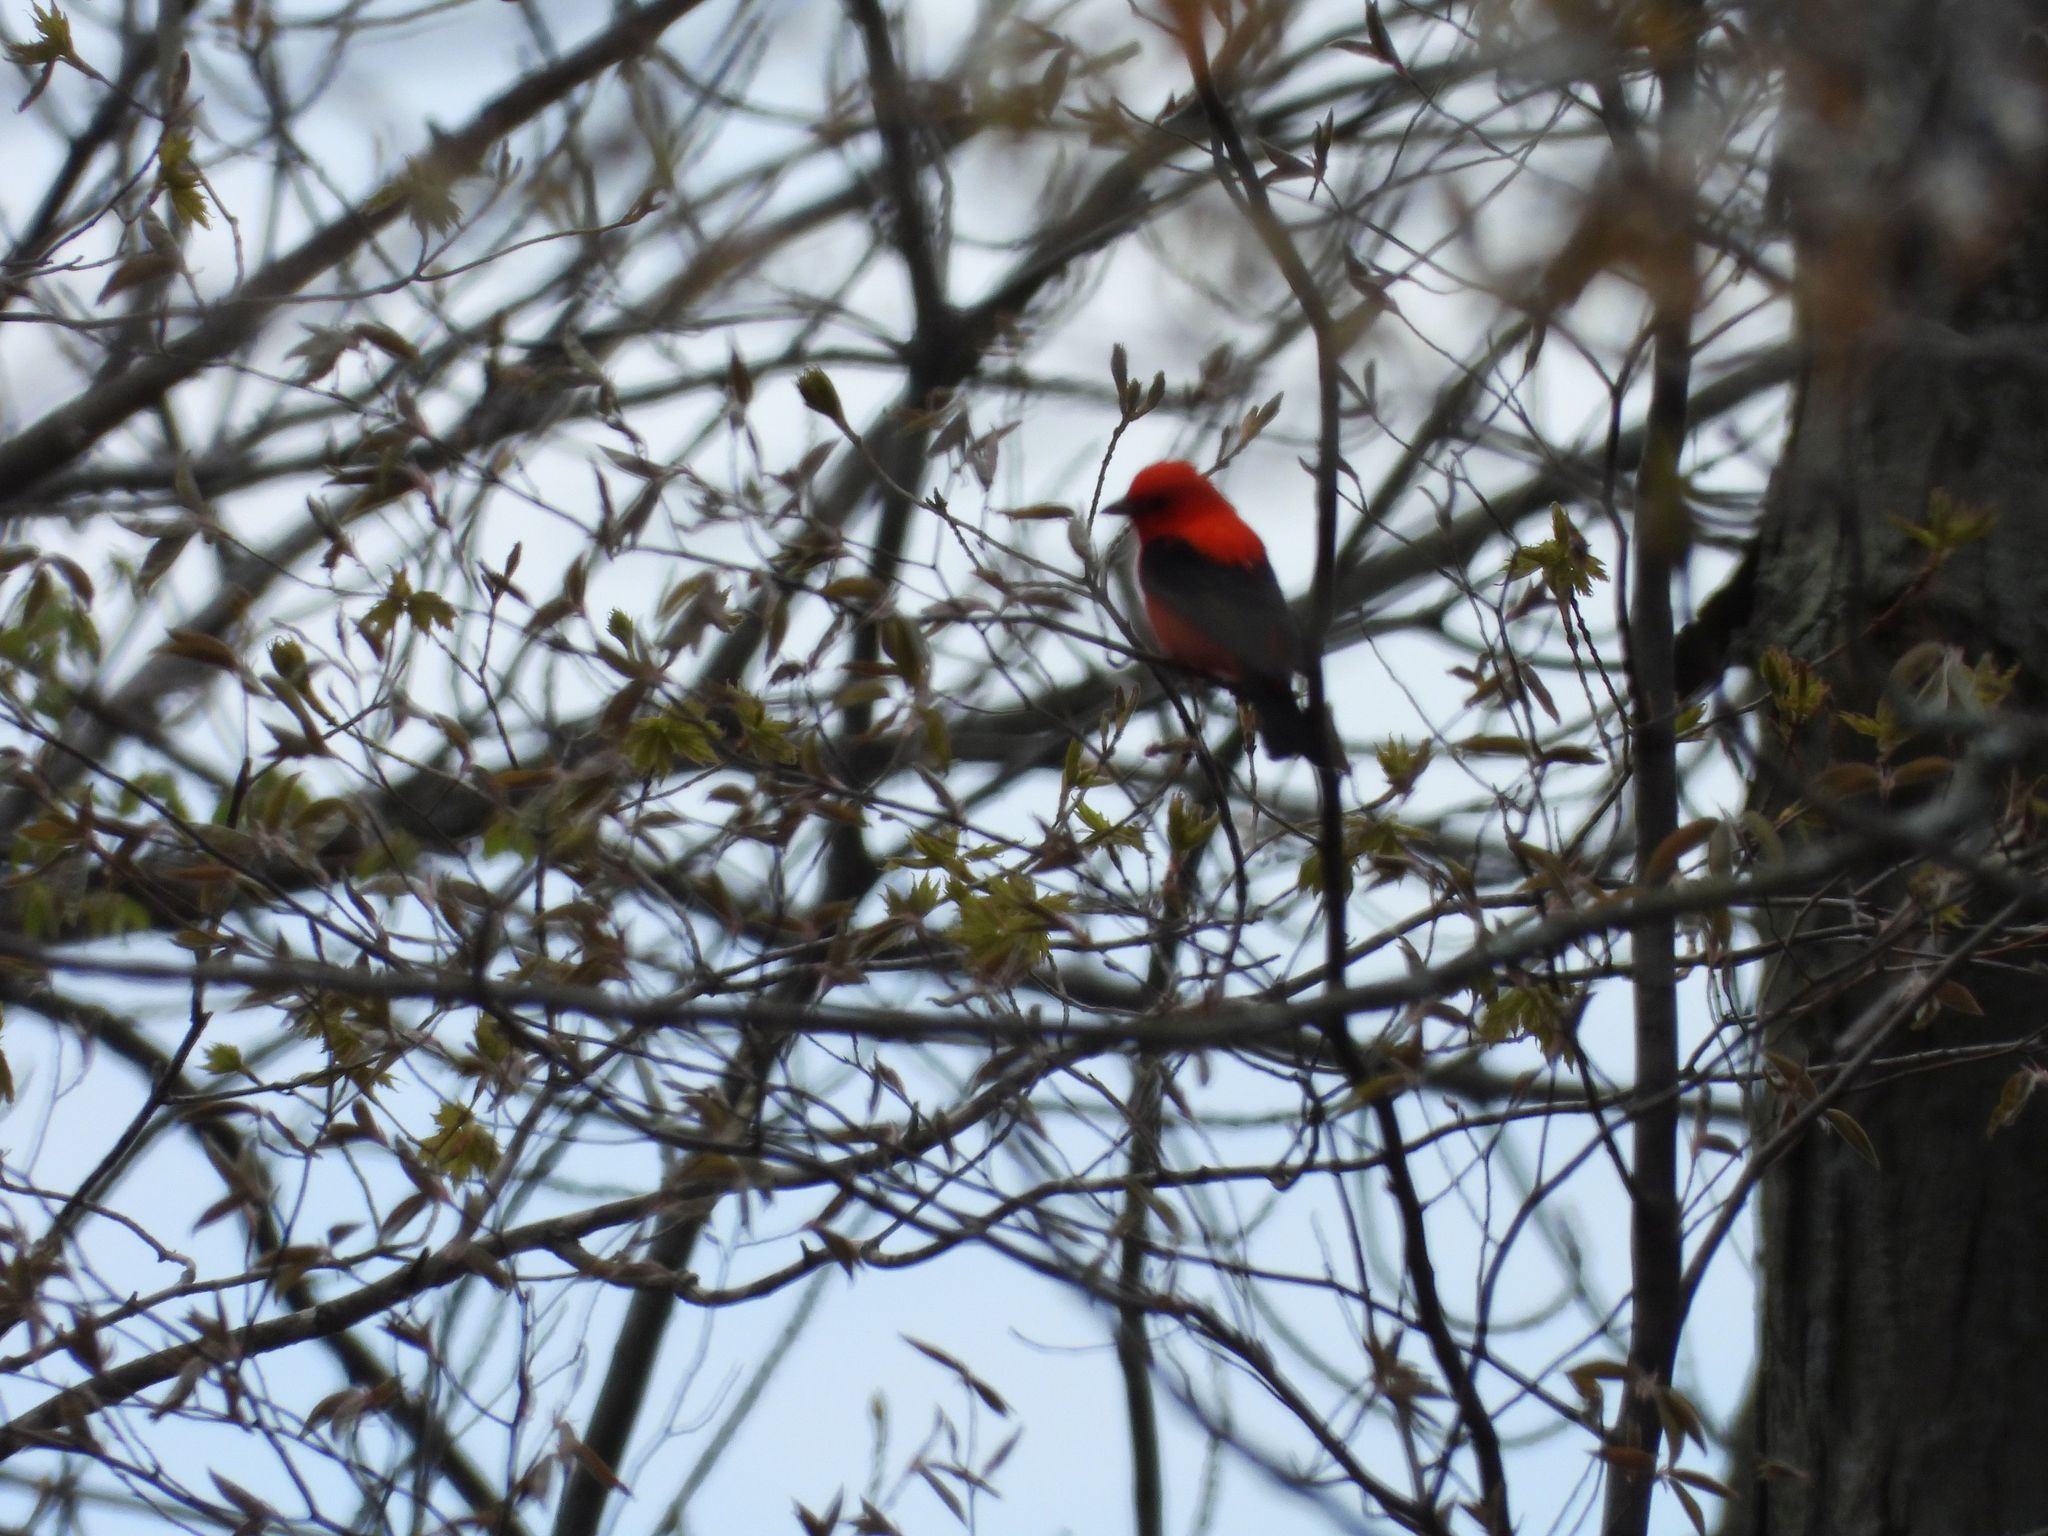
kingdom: Animalia
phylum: Chordata
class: Aves
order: Passeriformes
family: Cardinalidae
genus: Piranga
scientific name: Piranga olivacea
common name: Scarlet tanager
